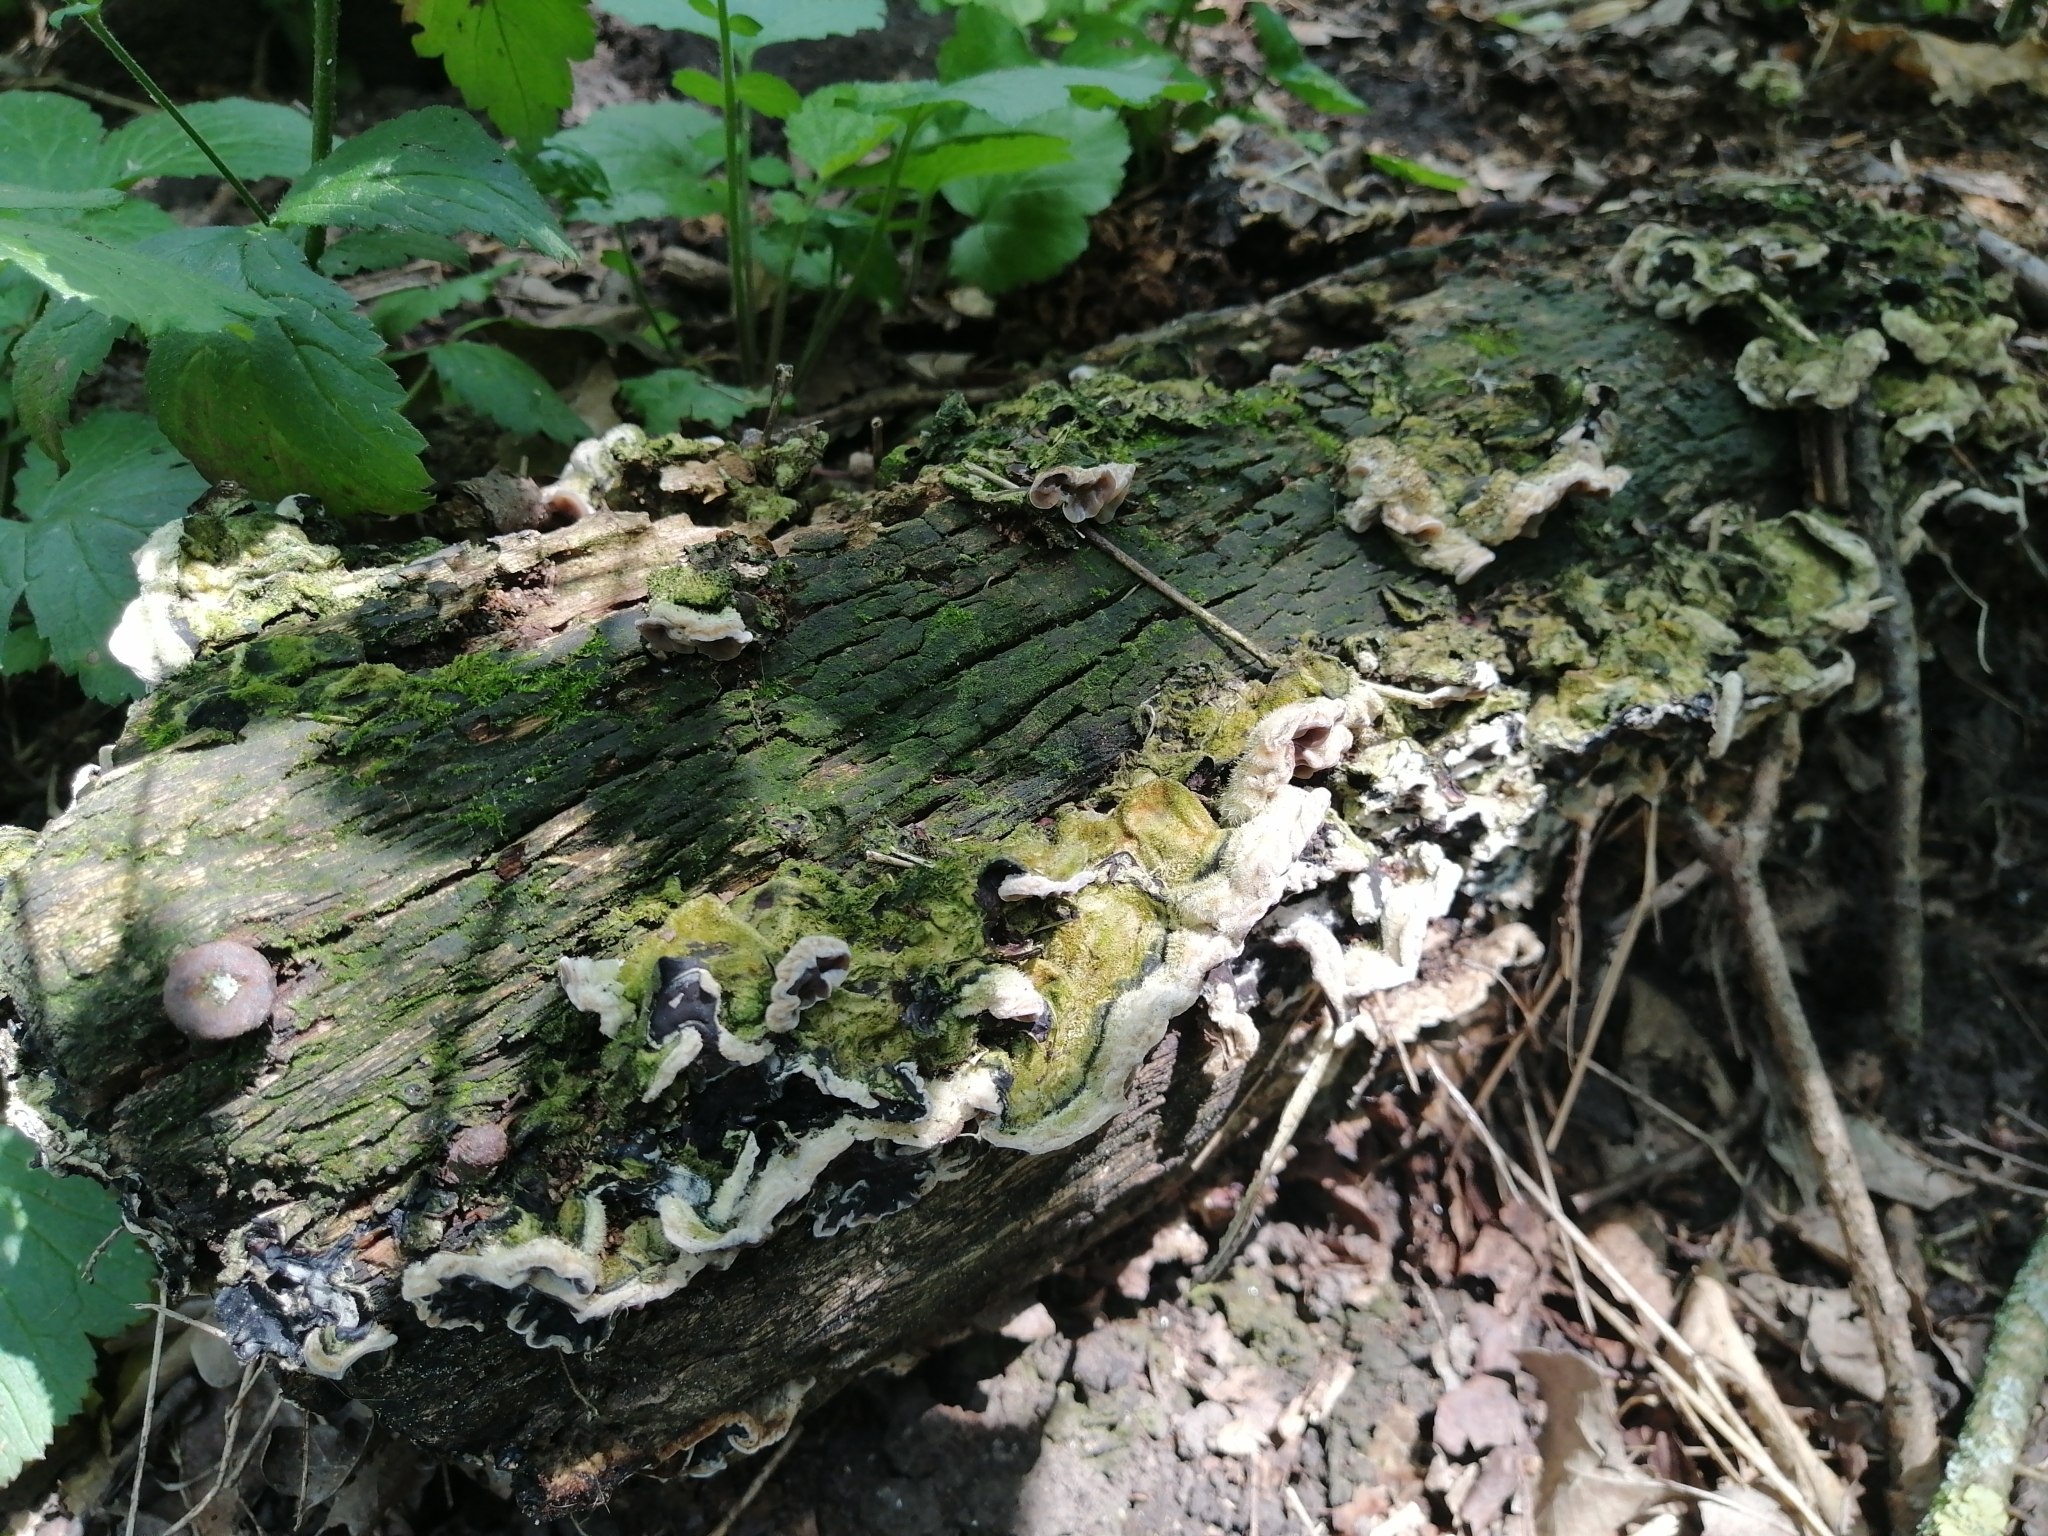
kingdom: Fungi
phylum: Basidiomycota
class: Agaricomycetes
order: Auriculariales
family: Auriculariaceae
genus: Auricularia
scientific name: Auricularia mesenterica
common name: Tripe fungus
